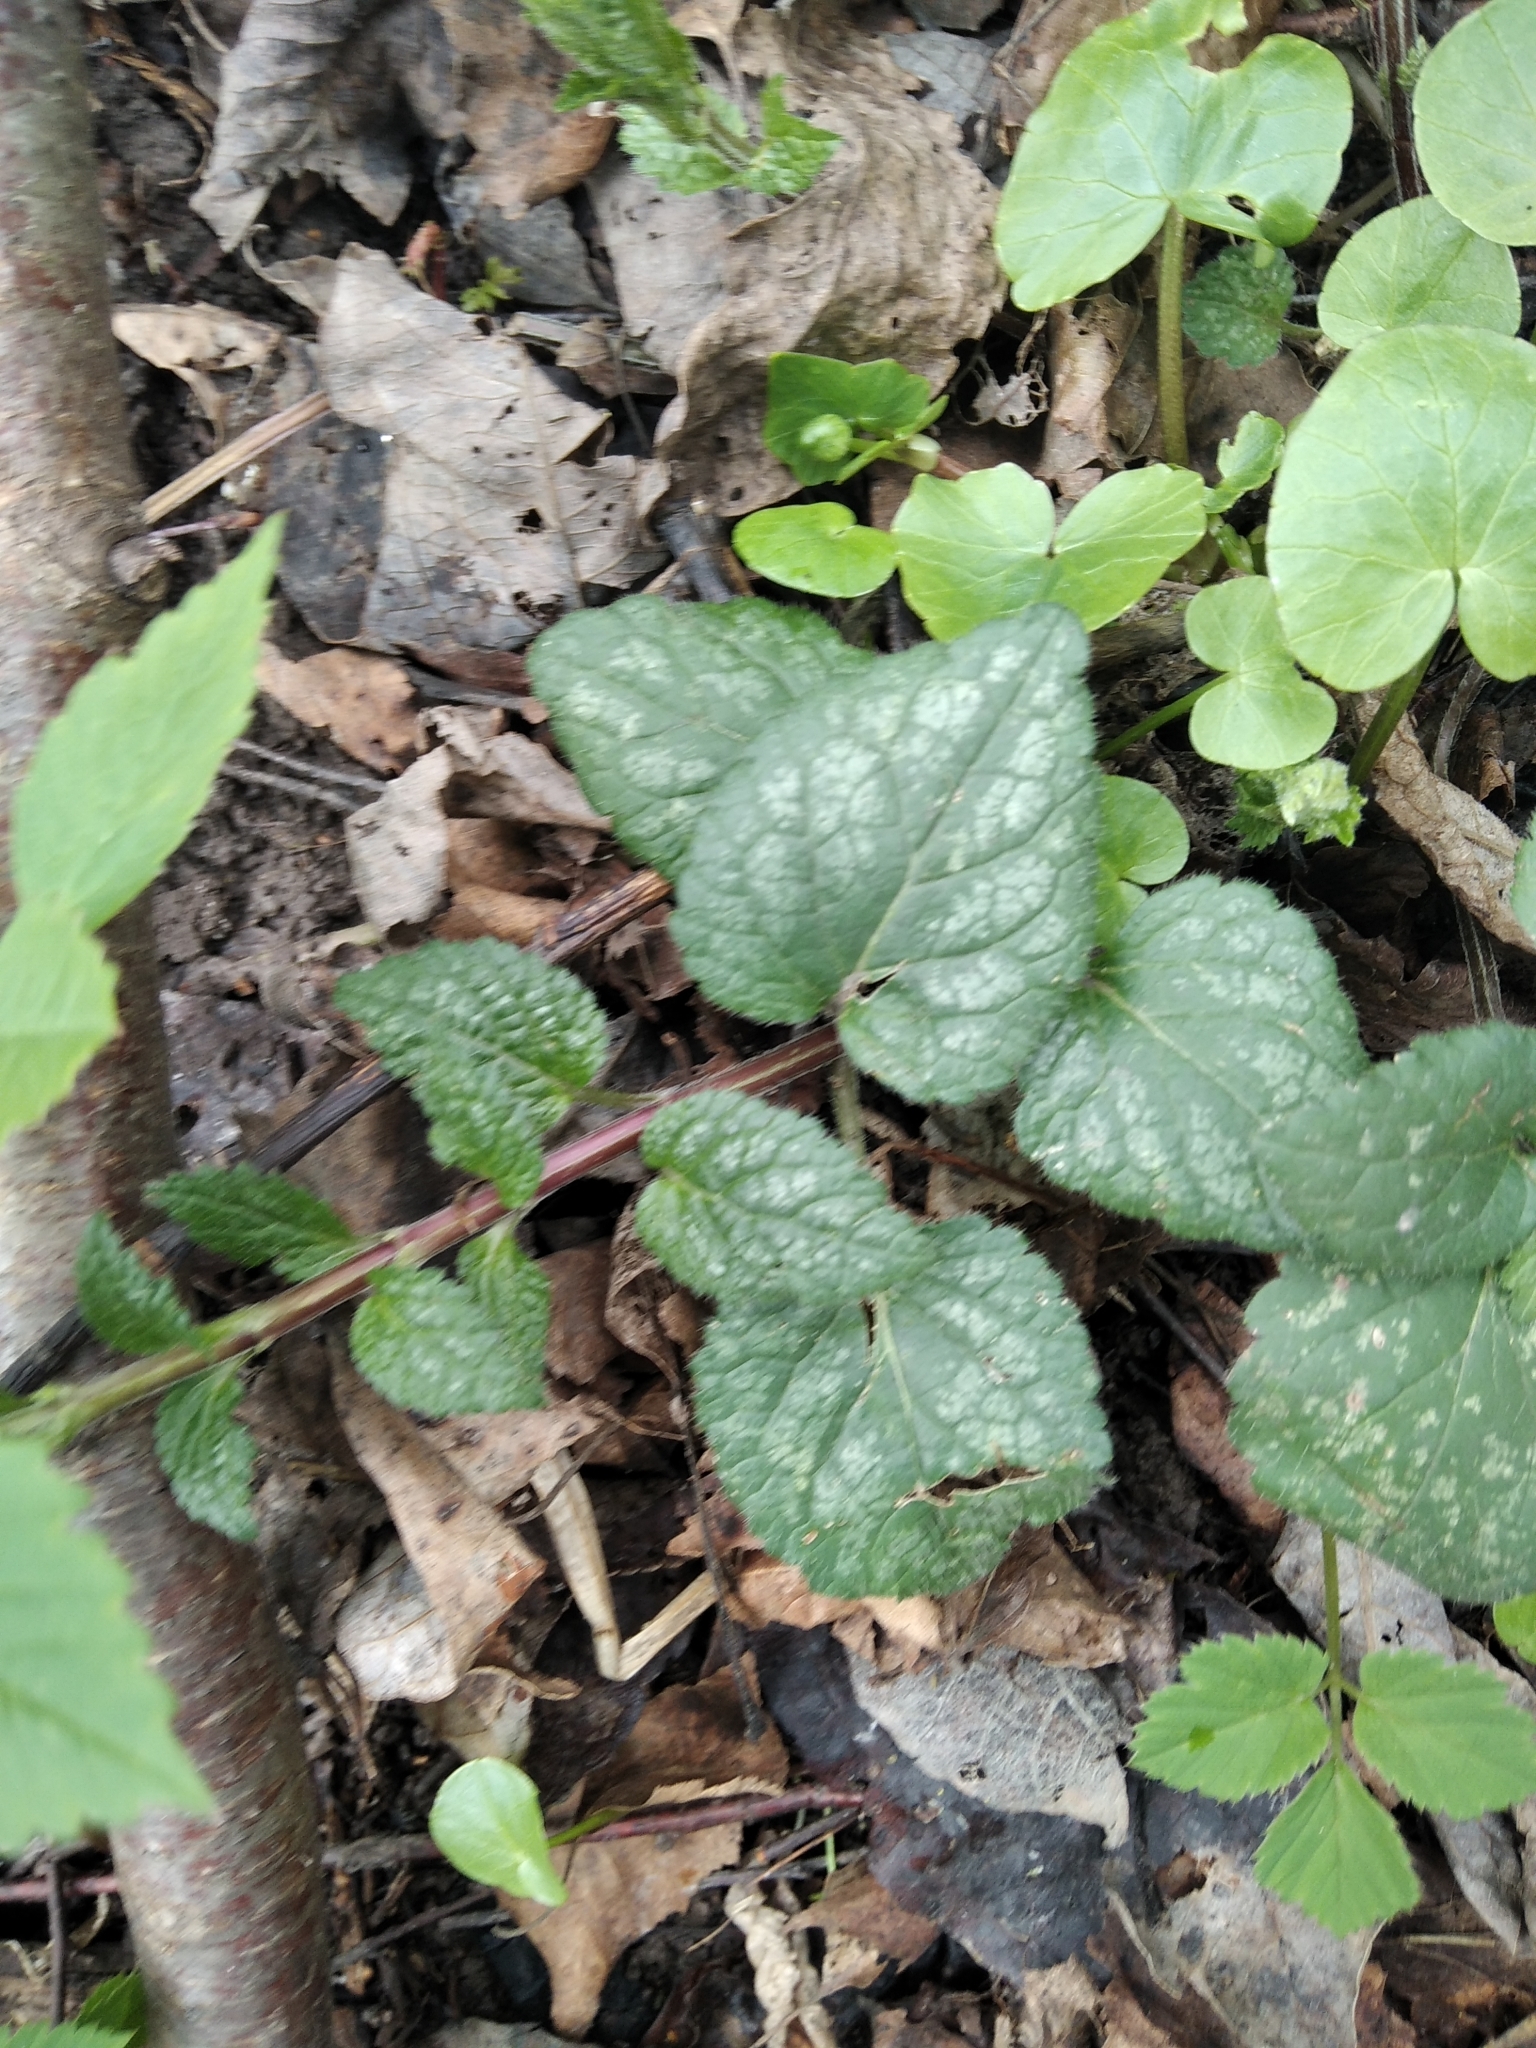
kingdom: Plantae
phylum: Tracheophyta
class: Magnoliopsida
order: Lamiales
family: Lamiaceae
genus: Lamium
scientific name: Lamium galeobdolon
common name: Yellow archangel
